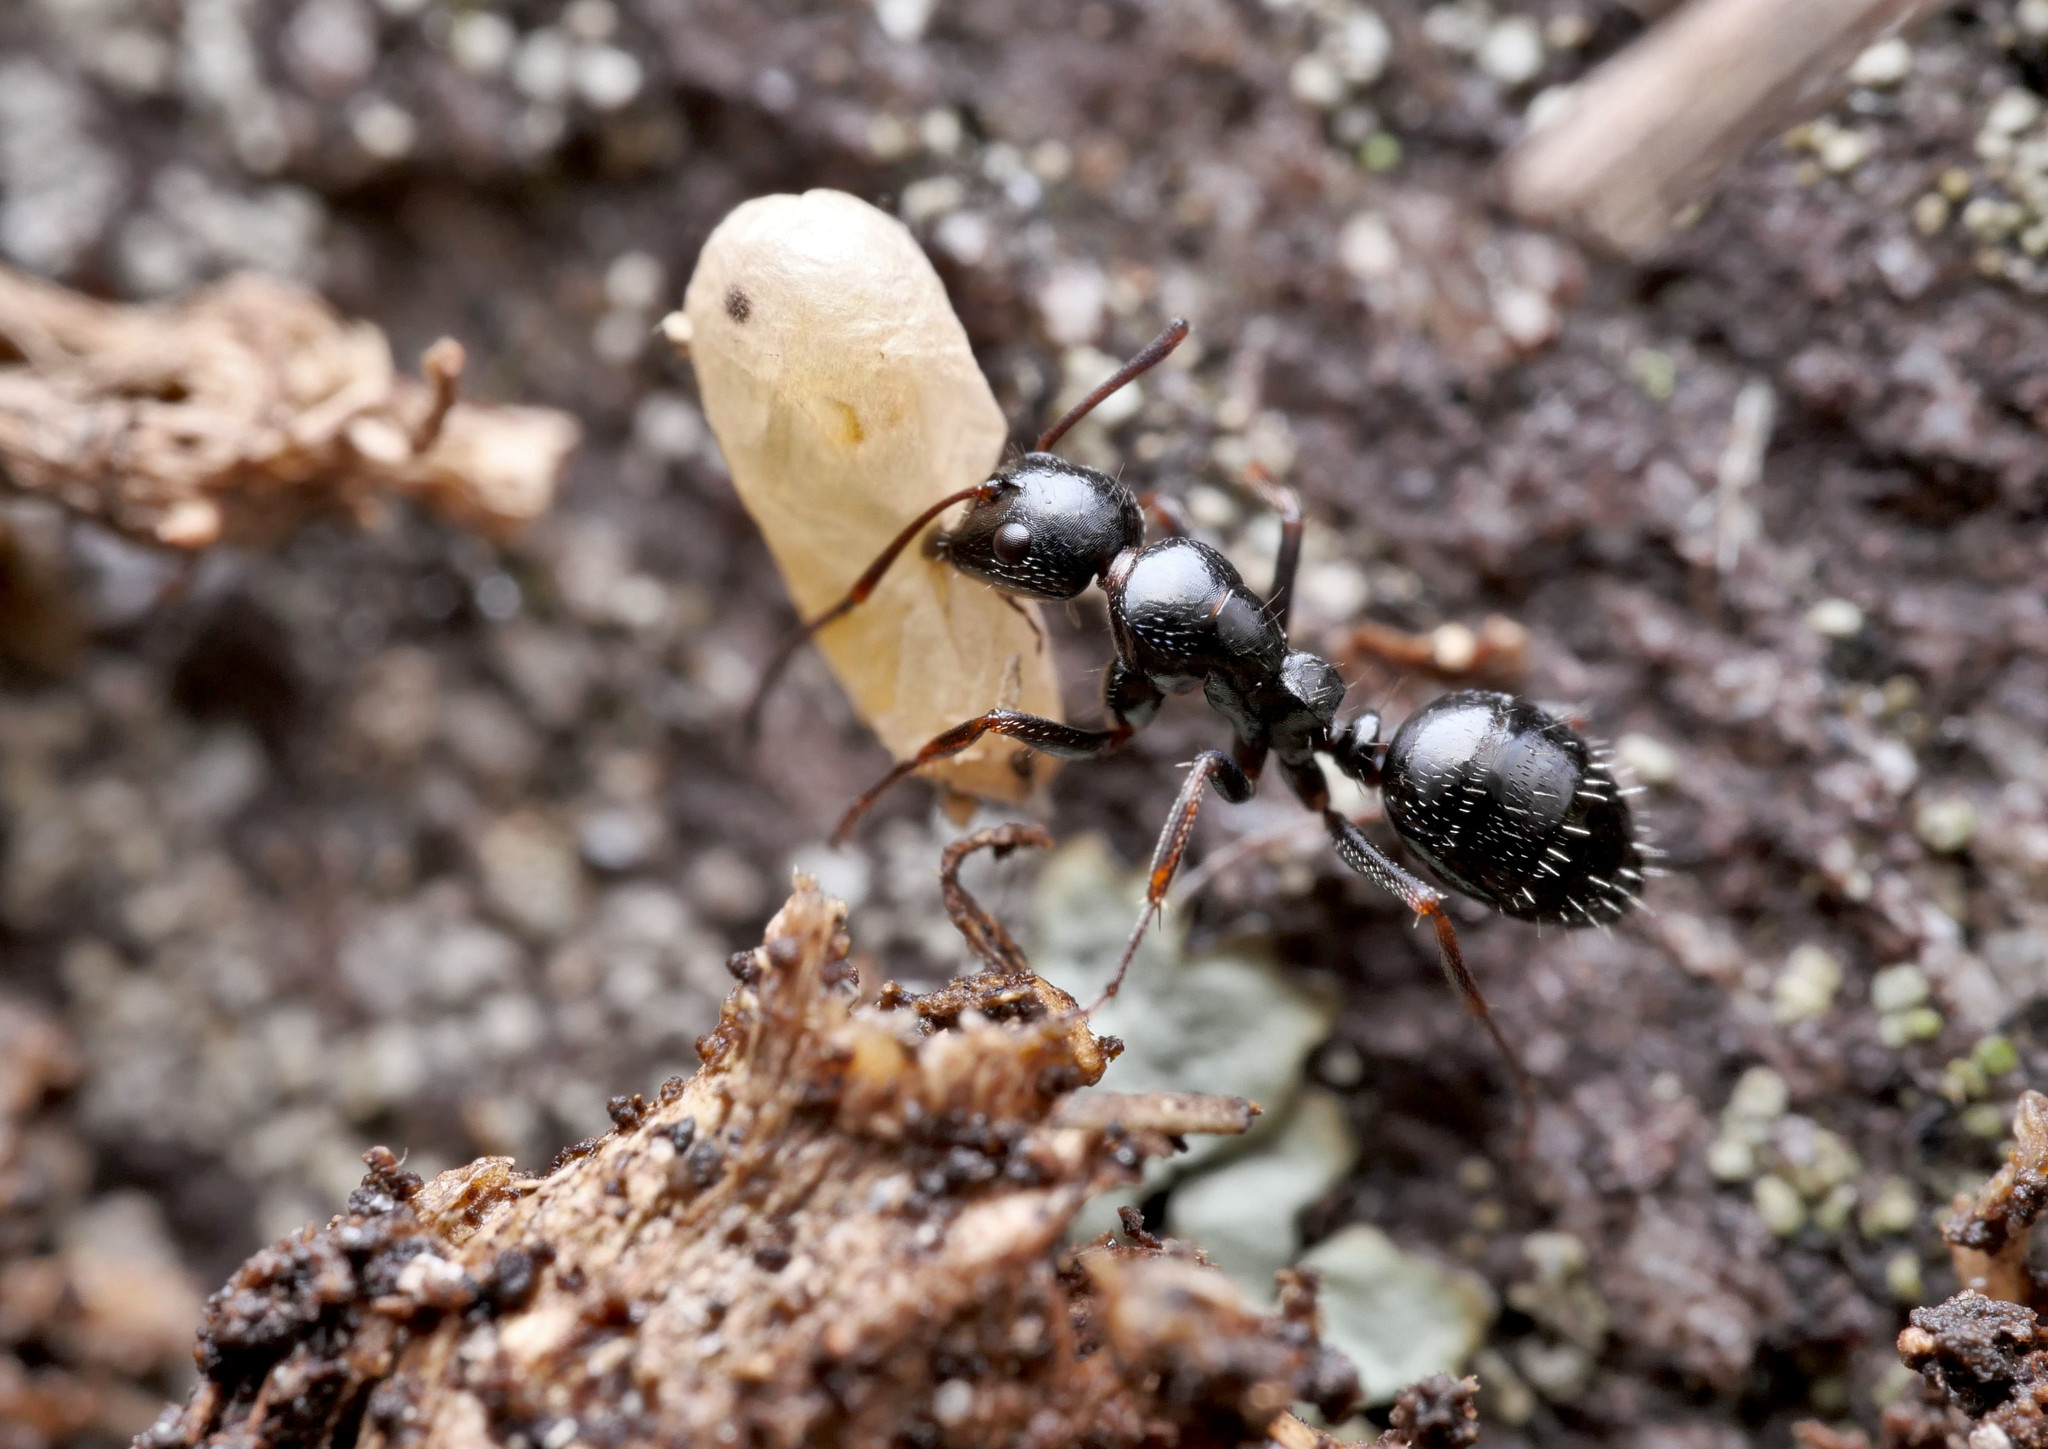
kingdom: Animalia
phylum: Arthropoda
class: Insecta
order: Hymenoptera
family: Formicidae
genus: Camponotus
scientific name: Camponotus piceus
